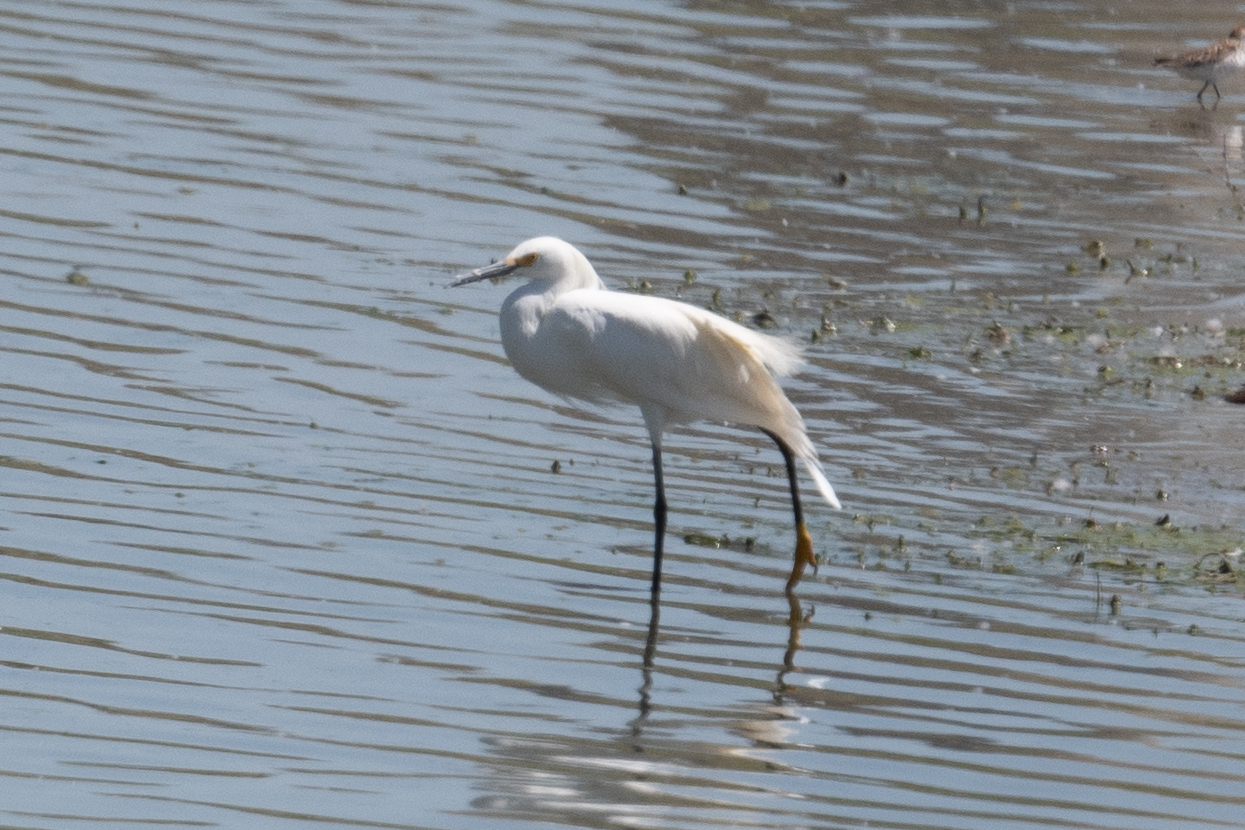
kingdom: Animalia
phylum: Chordata
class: Aves
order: Pelecaniformes
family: Ardeidae
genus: Egretta
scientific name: Egretta thula
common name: Snowy egret
